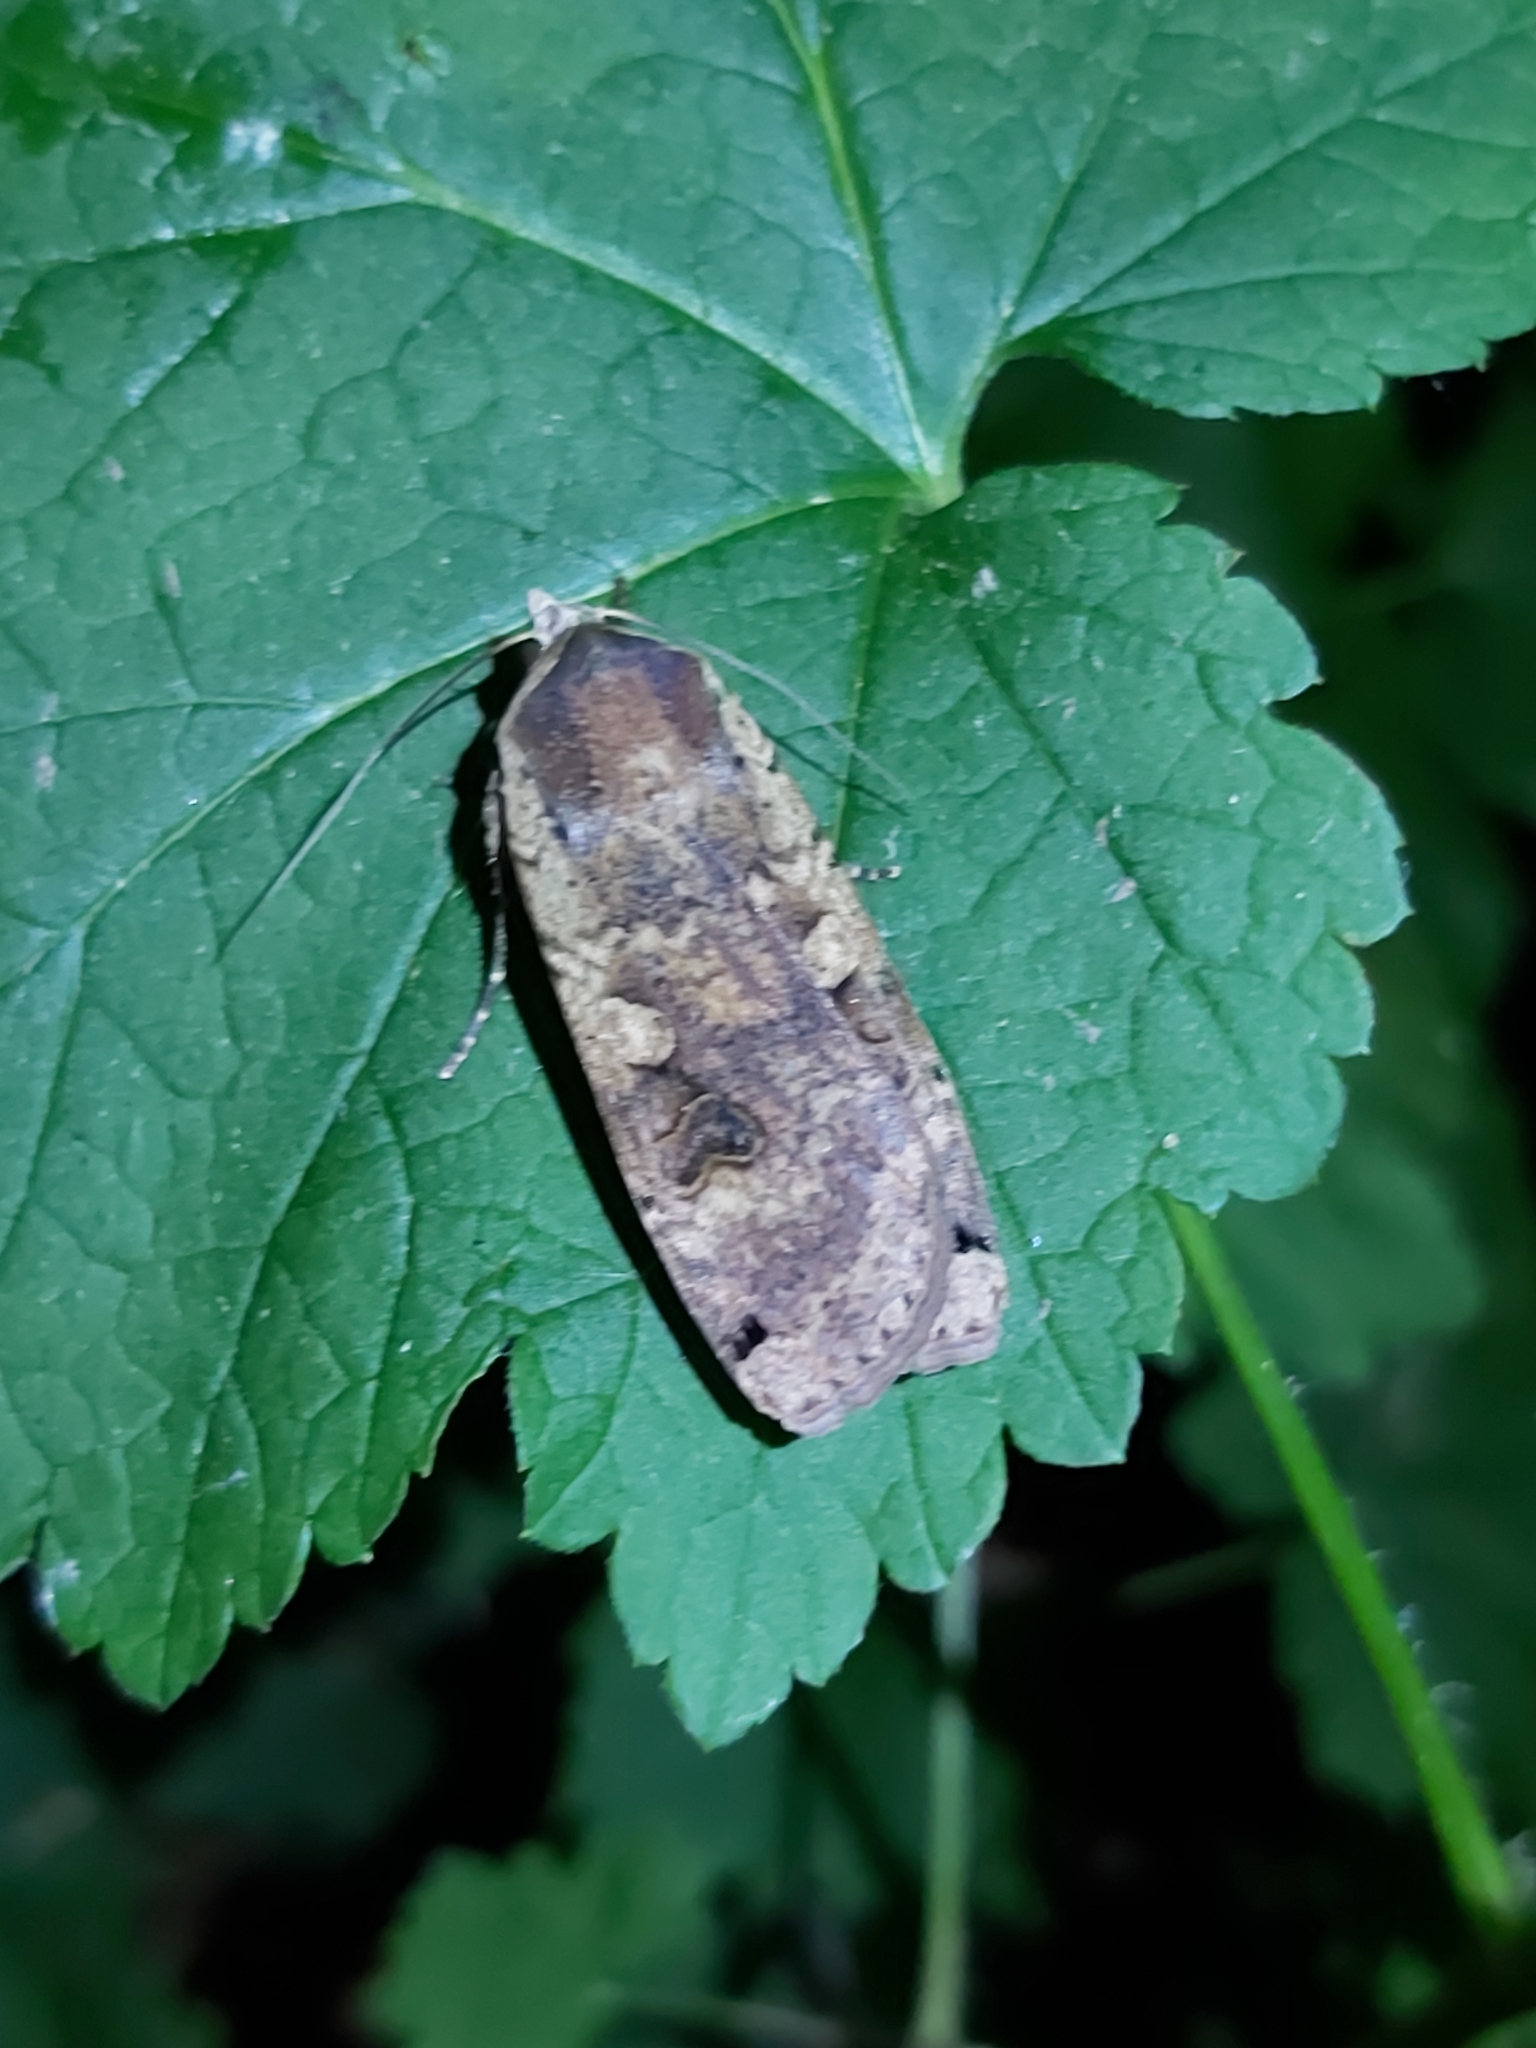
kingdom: Animalia
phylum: Arthropoda
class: Insecta
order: Lepidoptera
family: Noctuidae
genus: Noctua
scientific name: Noctua pronuba
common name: Large yellow underwing
